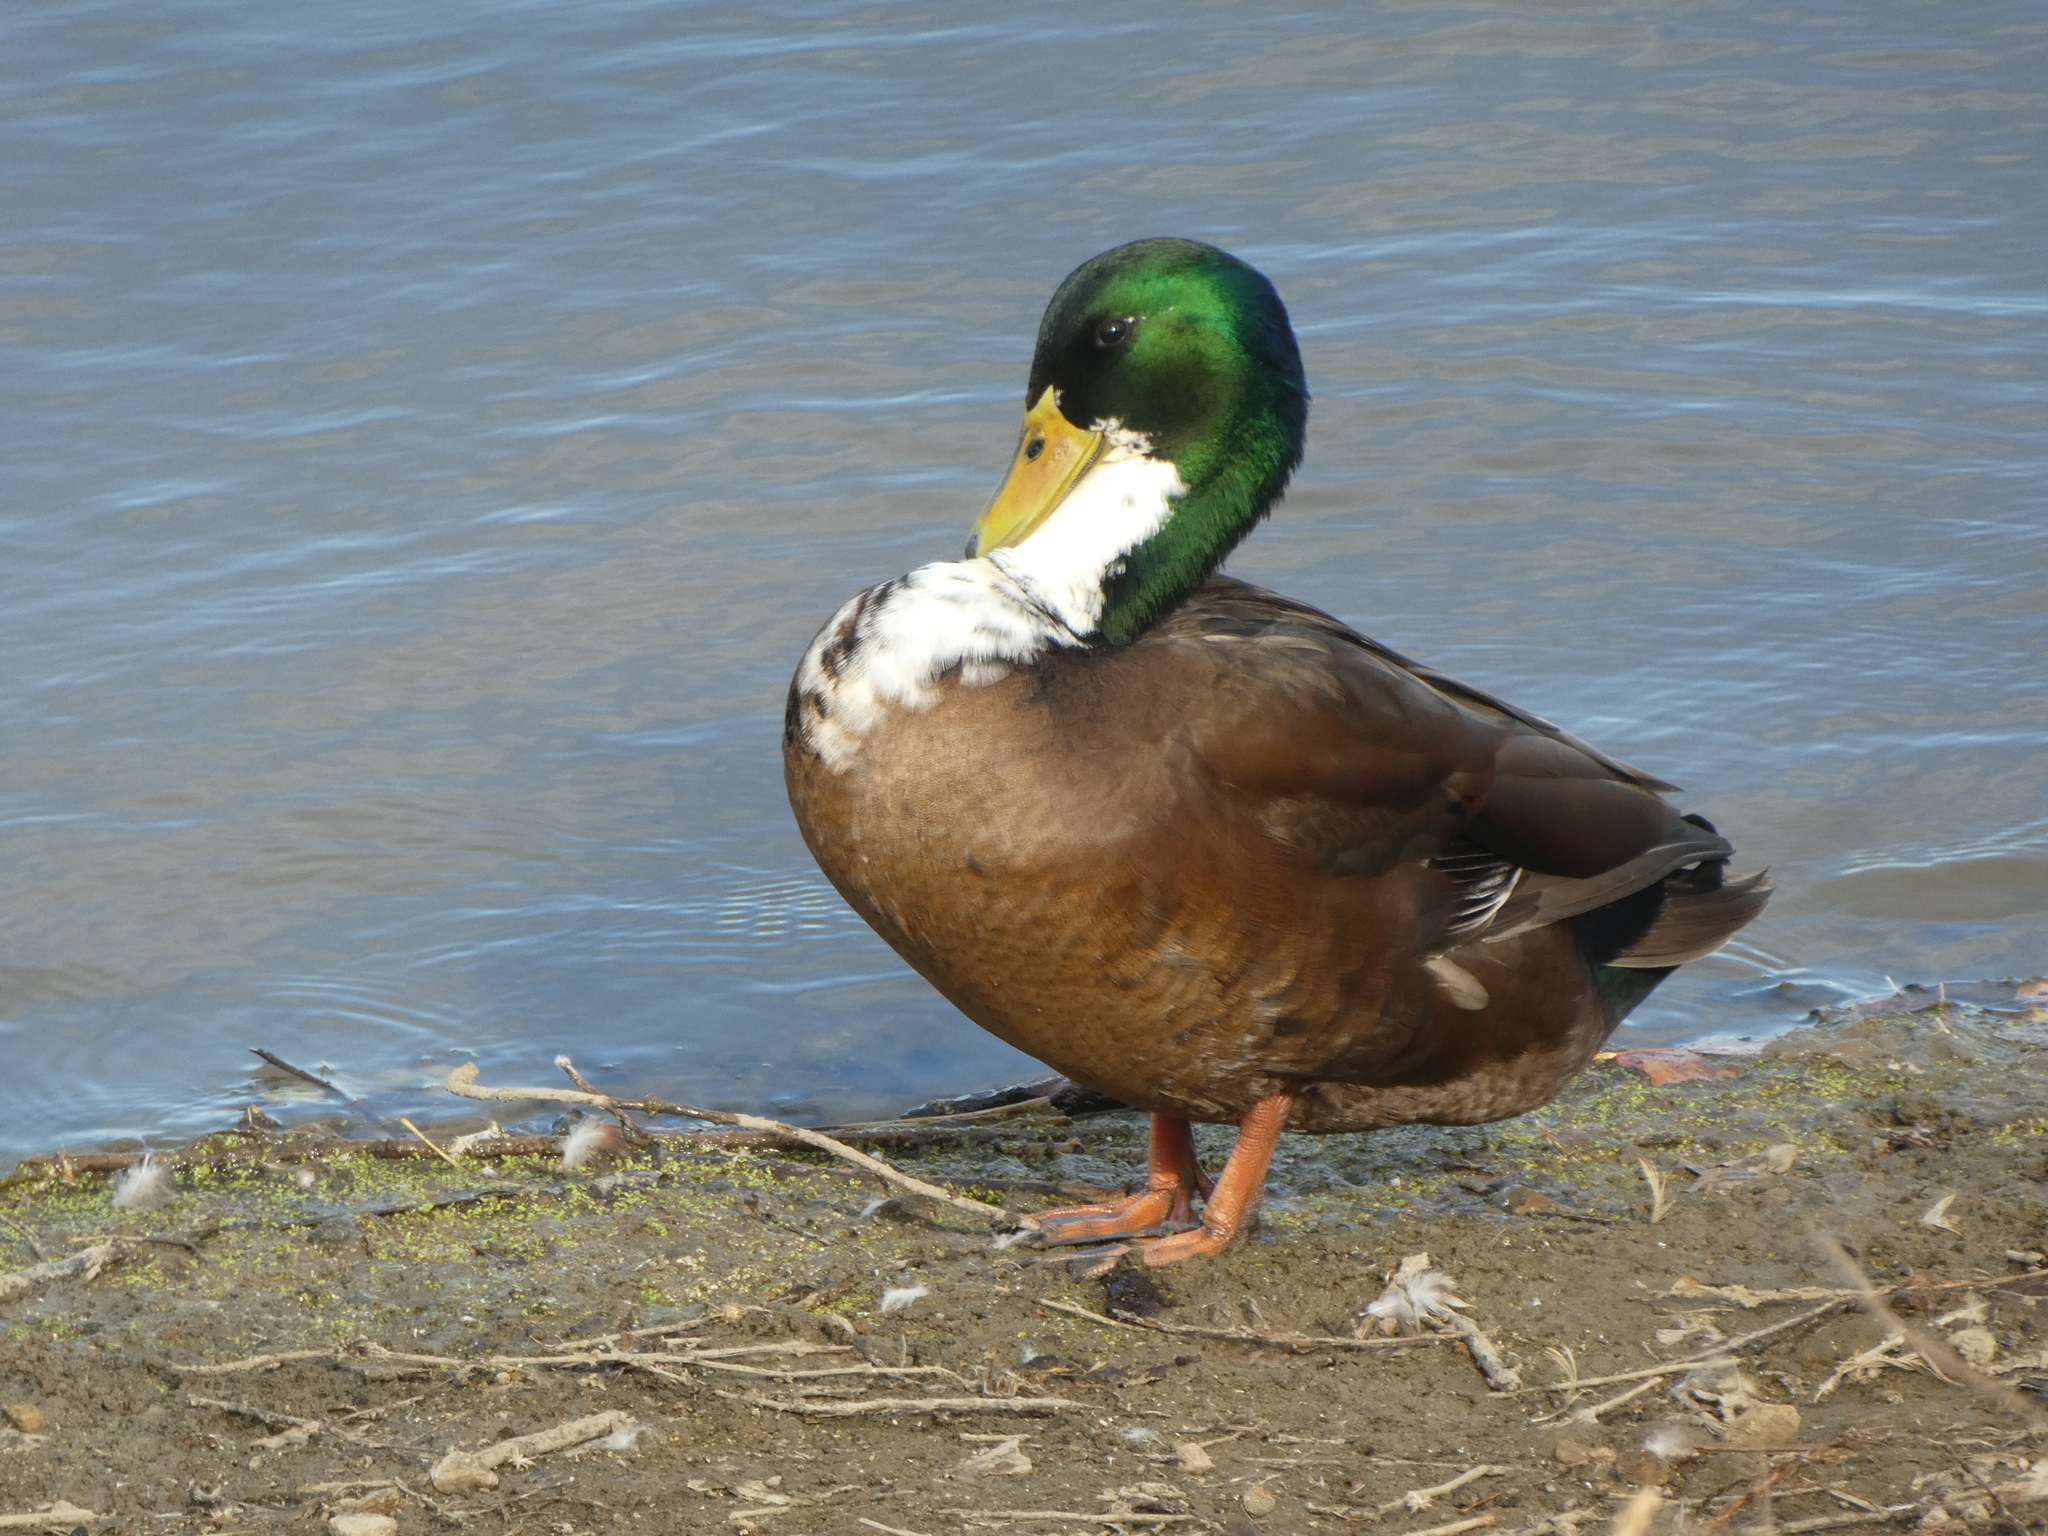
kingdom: Animalia
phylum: Chordata
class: Aves
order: Anseriformes
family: Anatidae
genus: Anas
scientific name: Anas platyrhynchos
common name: Mallard
